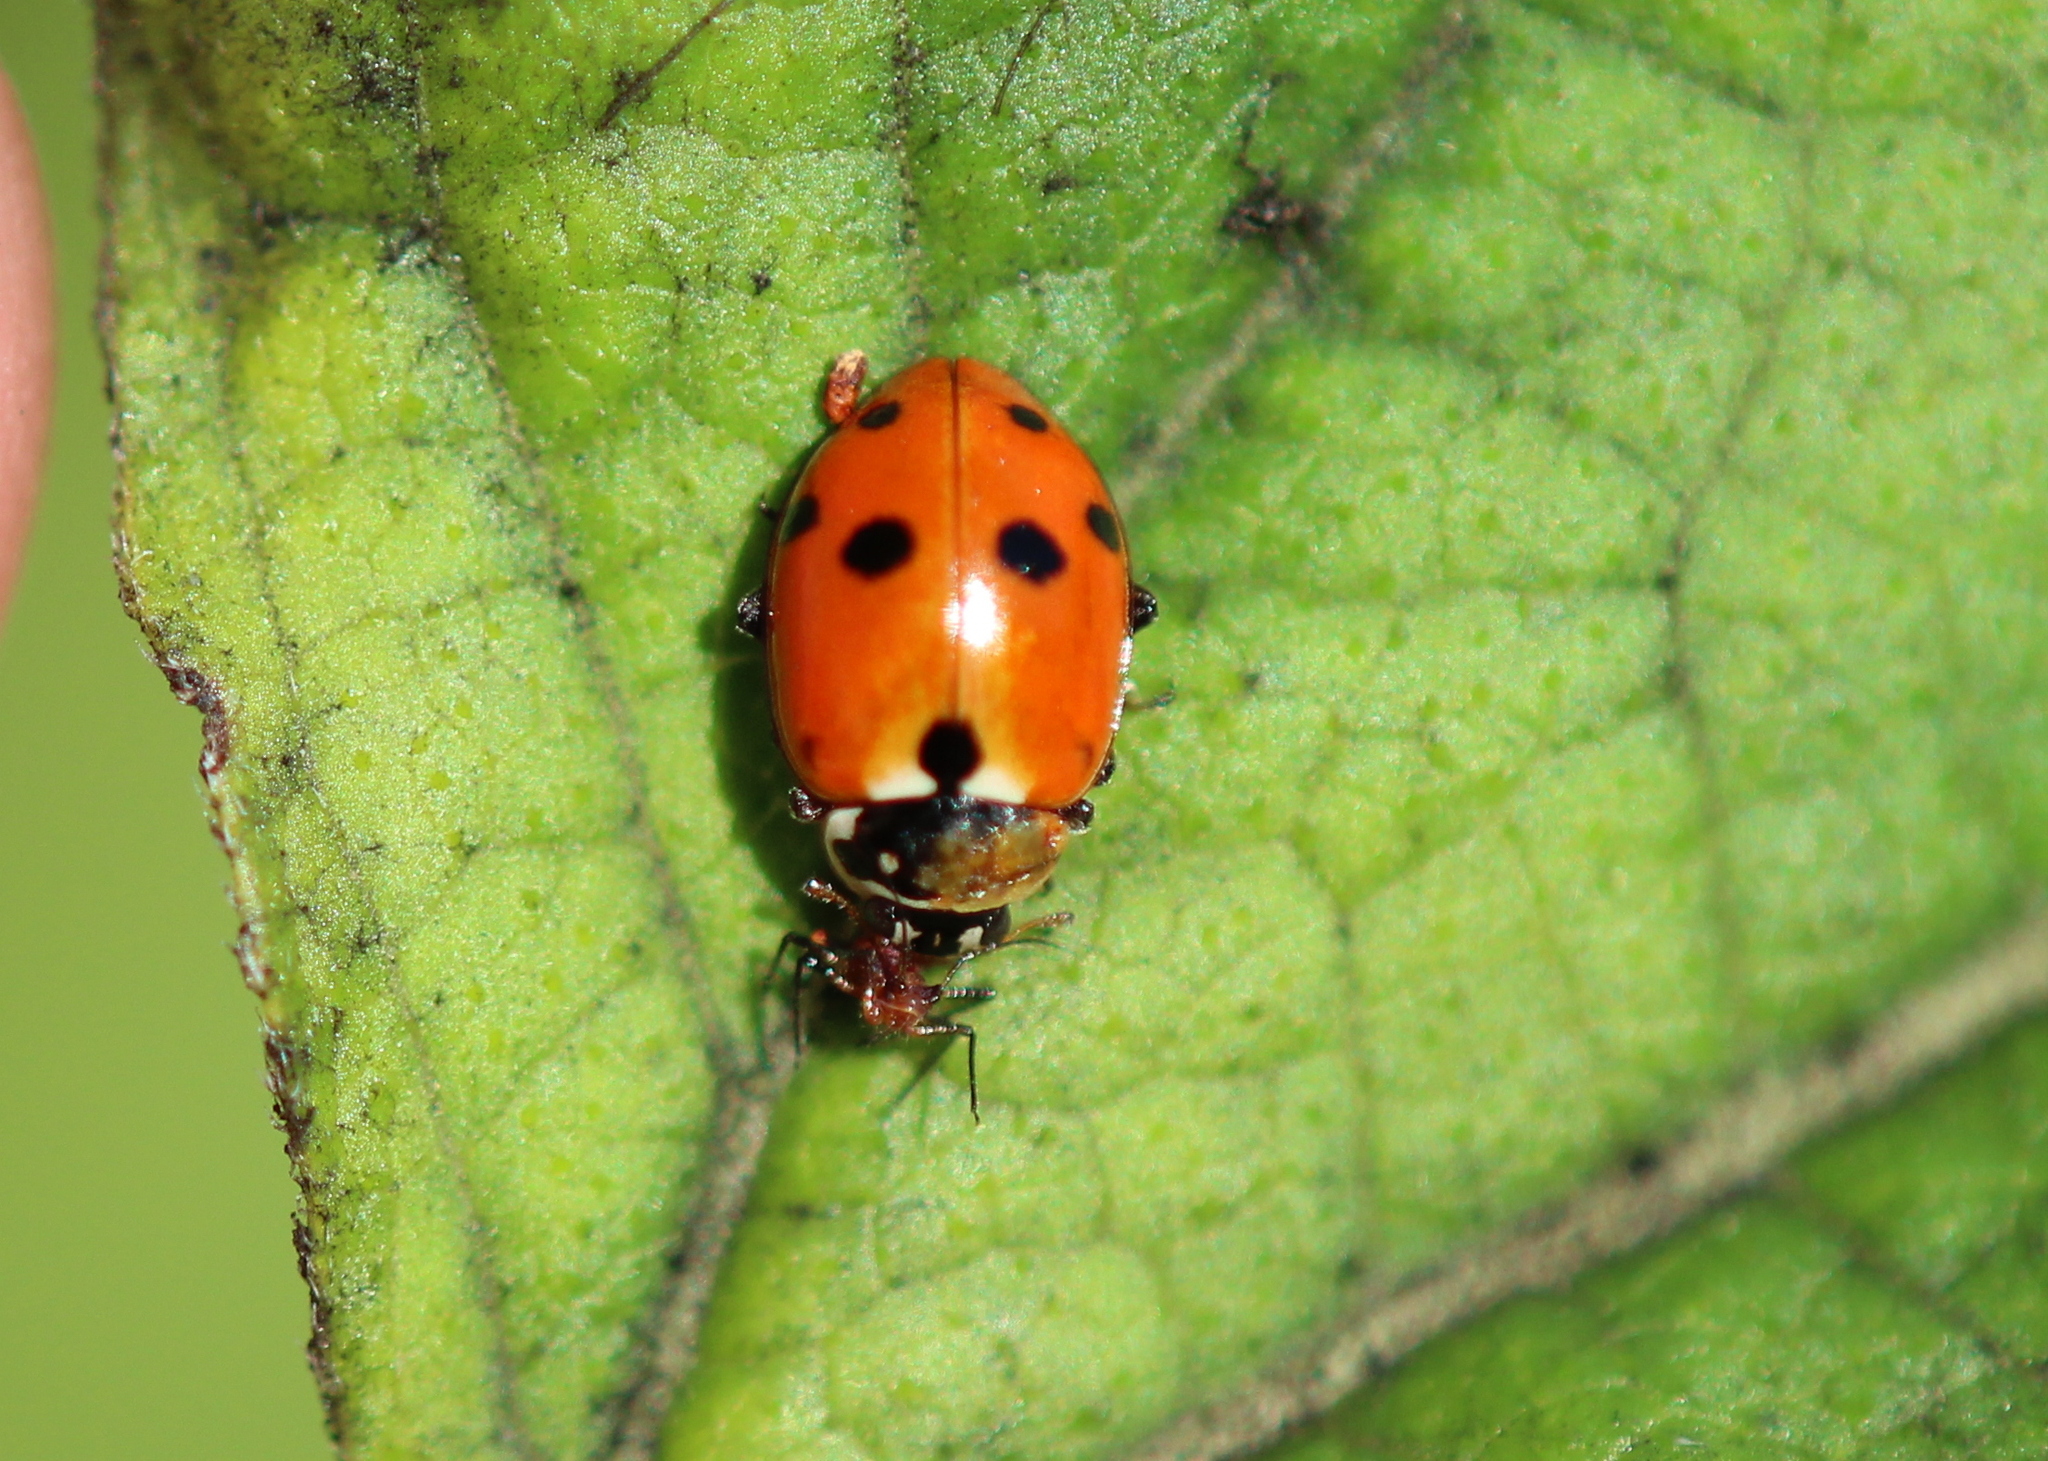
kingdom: Animalia
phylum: Arthropoda
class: Insecta
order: Coleoptera
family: Coccinellidae
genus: Hippodamia
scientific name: Hippodamia variegata
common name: Ladybird beetle
